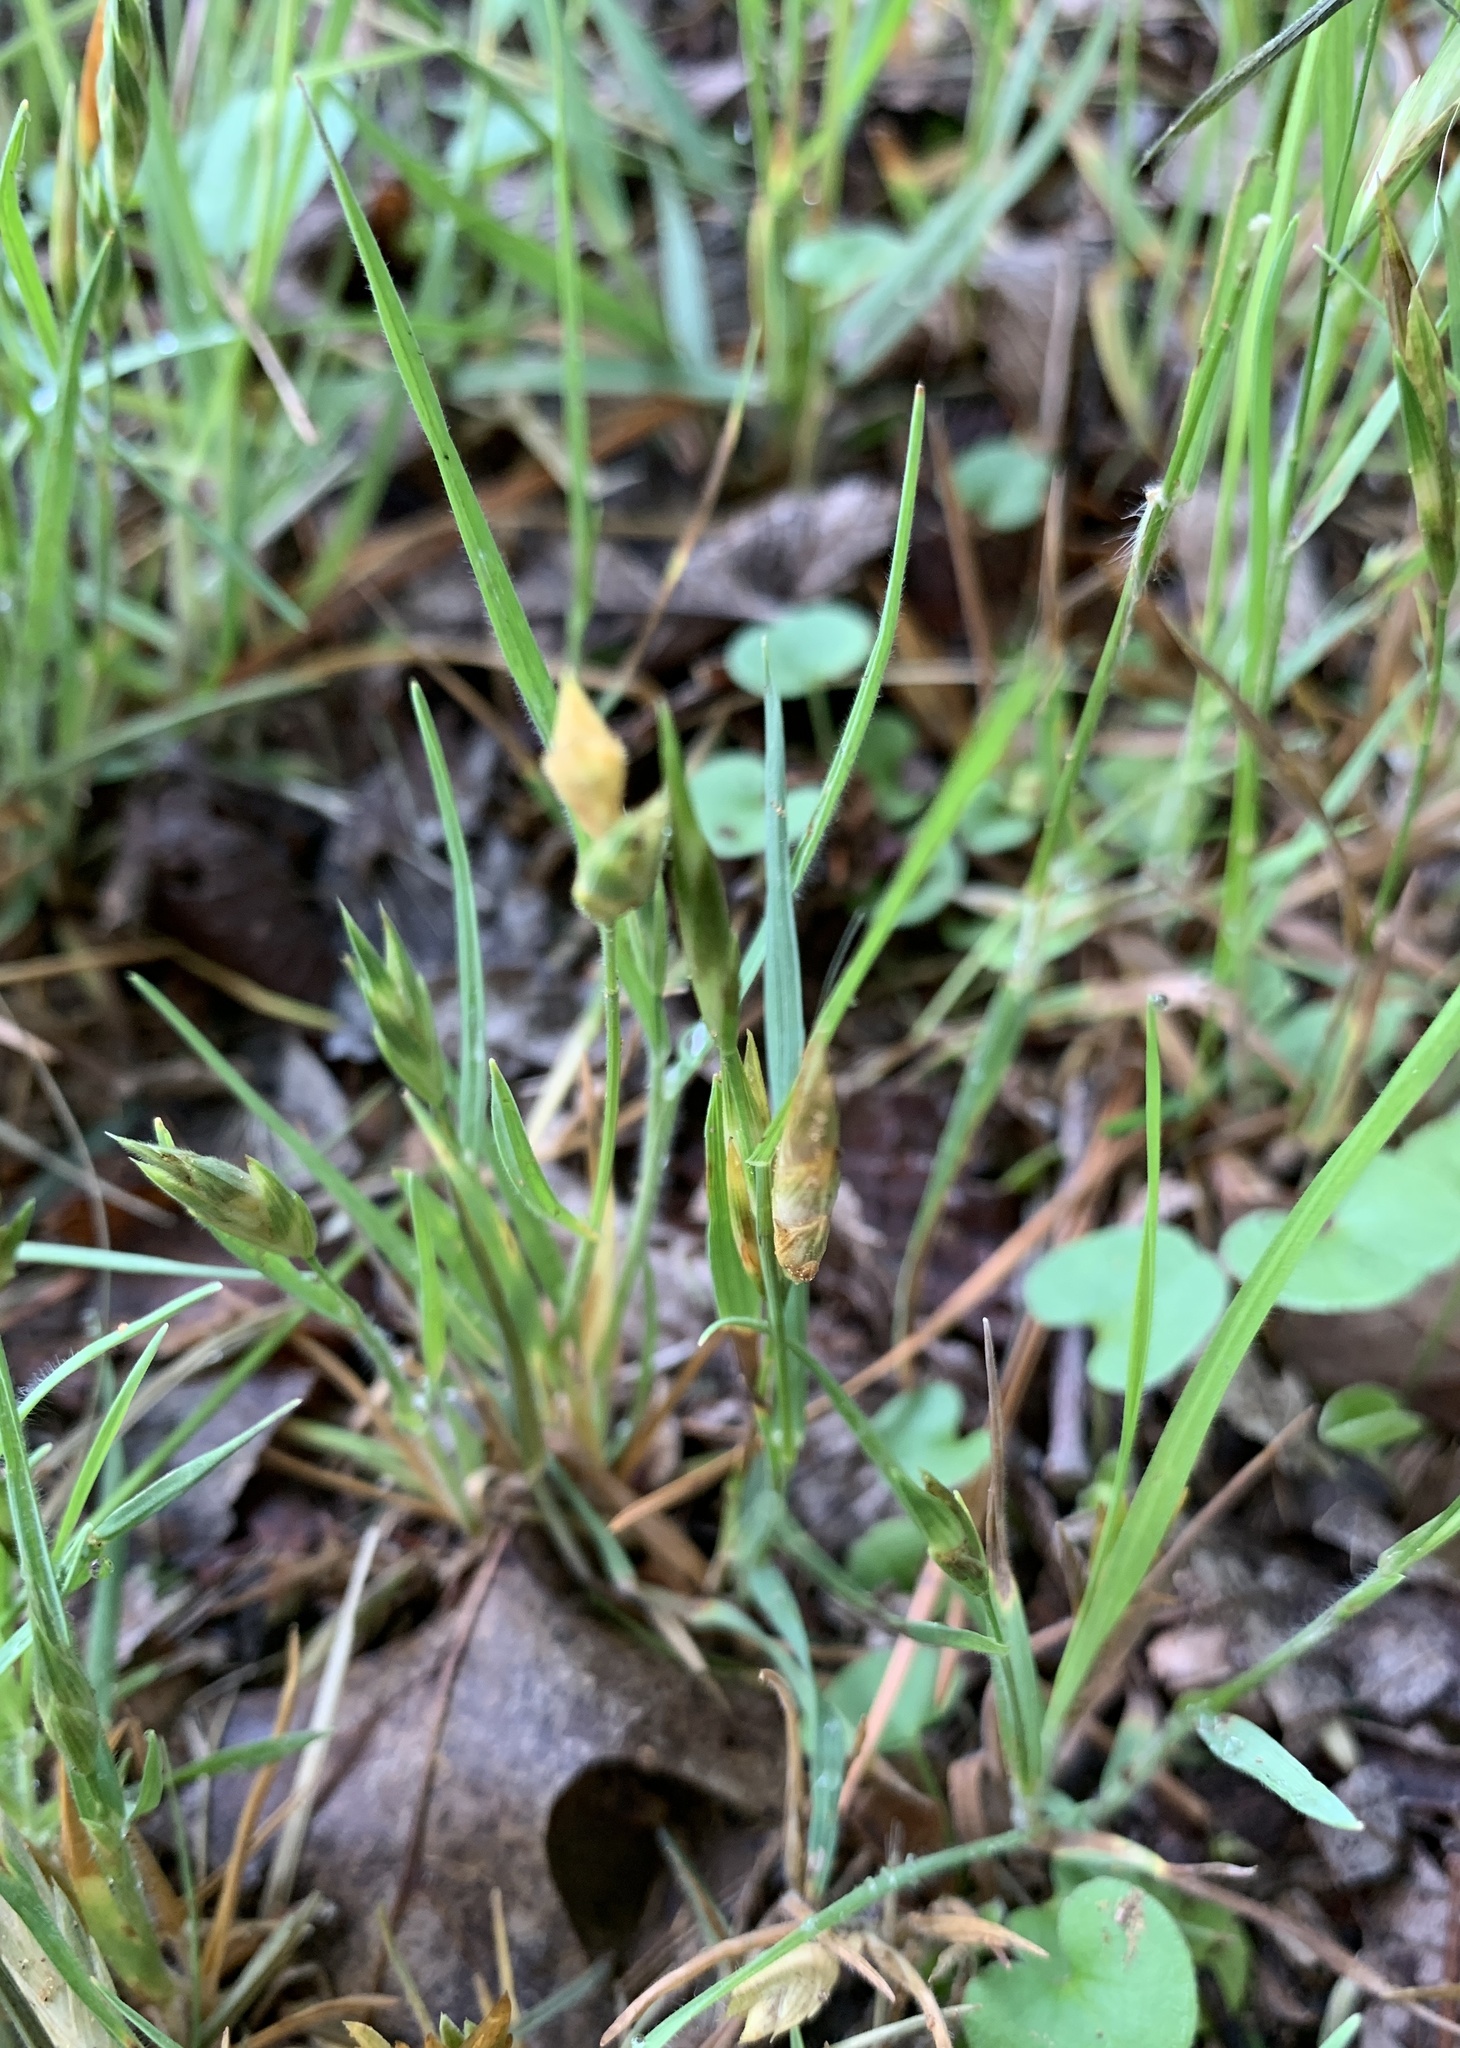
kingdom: Plantae
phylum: Tracheophyta
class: Liliopsida
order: Poales
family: Poaceae
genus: Bromus
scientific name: Bromus catharticus
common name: Rescuegrass
